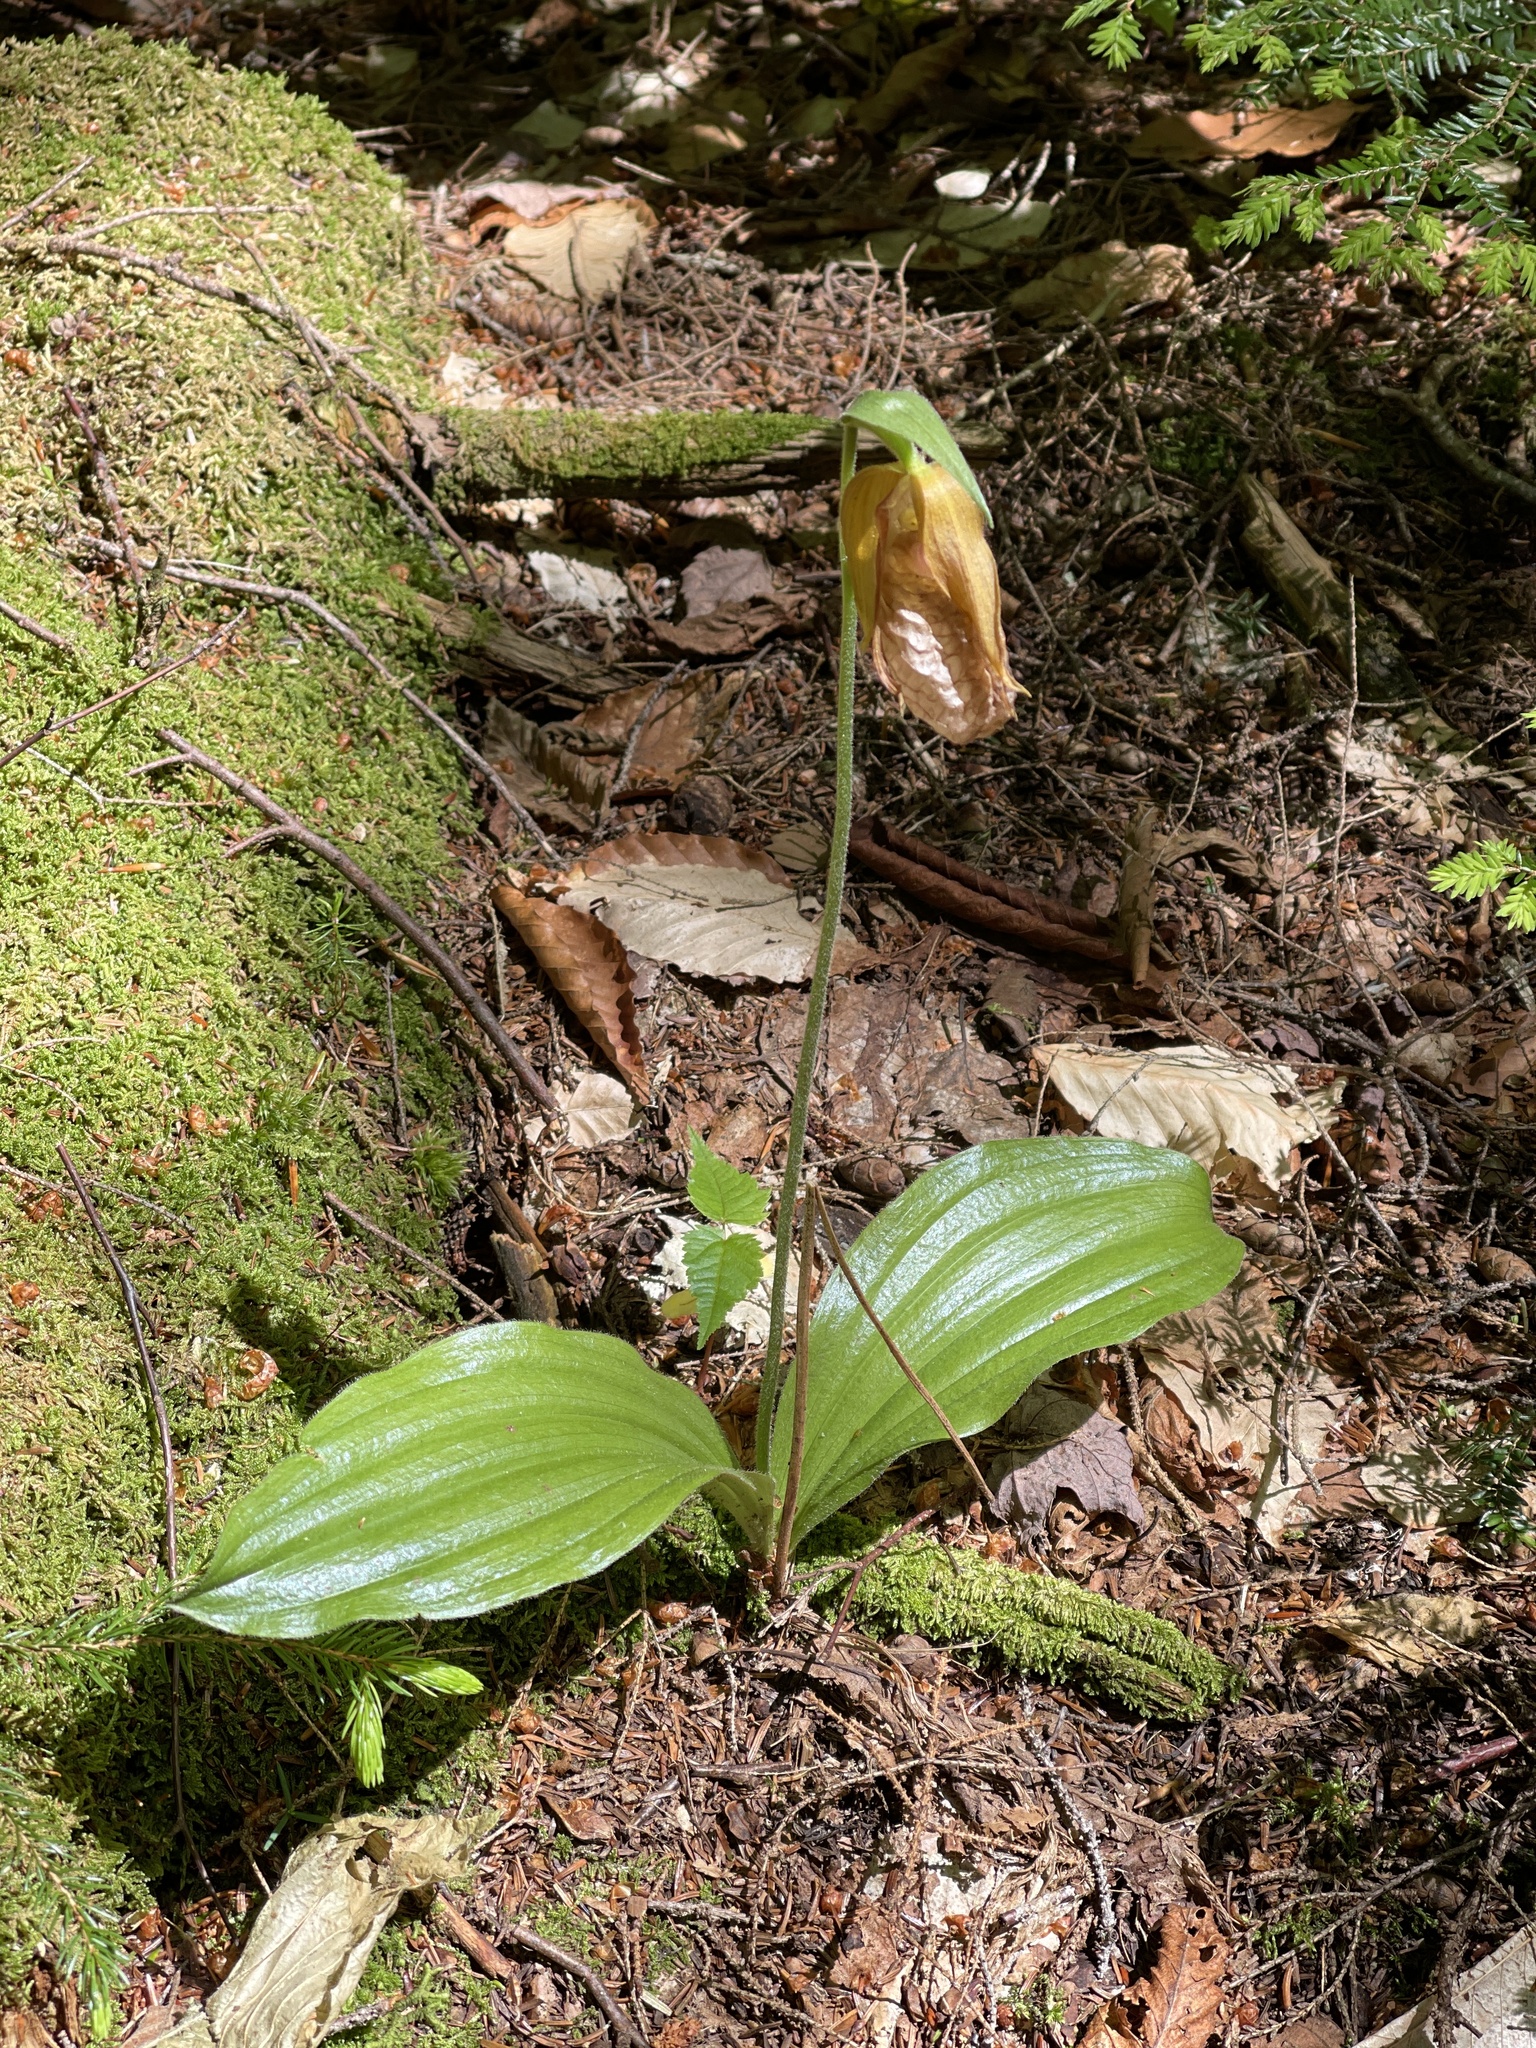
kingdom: Plantae
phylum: Tracheophyta
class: Liliopsida
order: Asparagales
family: Orchidaceae
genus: Cypripedium
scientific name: Cypripedium acaule
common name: Pink lady's-slipper
